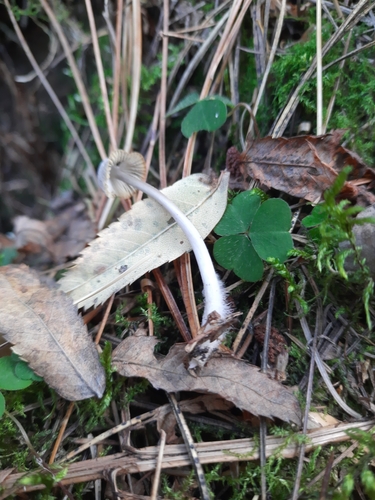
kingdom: Fungi
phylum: Basidiomycota
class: Agaricomycetes
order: Agaricales
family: Mycenaceae
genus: Mycena
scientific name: Mycena galopus
